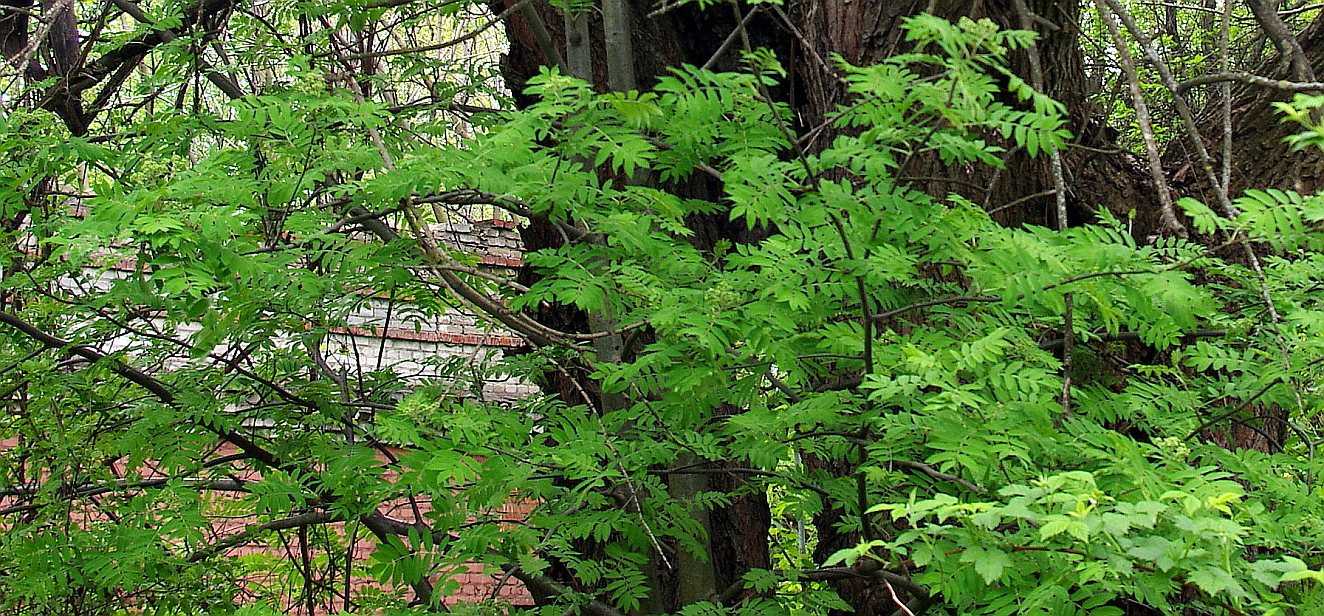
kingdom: Plantae
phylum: Tracheophyta
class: Magnoliopsida
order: Rosales
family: Rosaceae
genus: Sorbus
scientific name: Sorbus aucuparia
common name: Rowan
